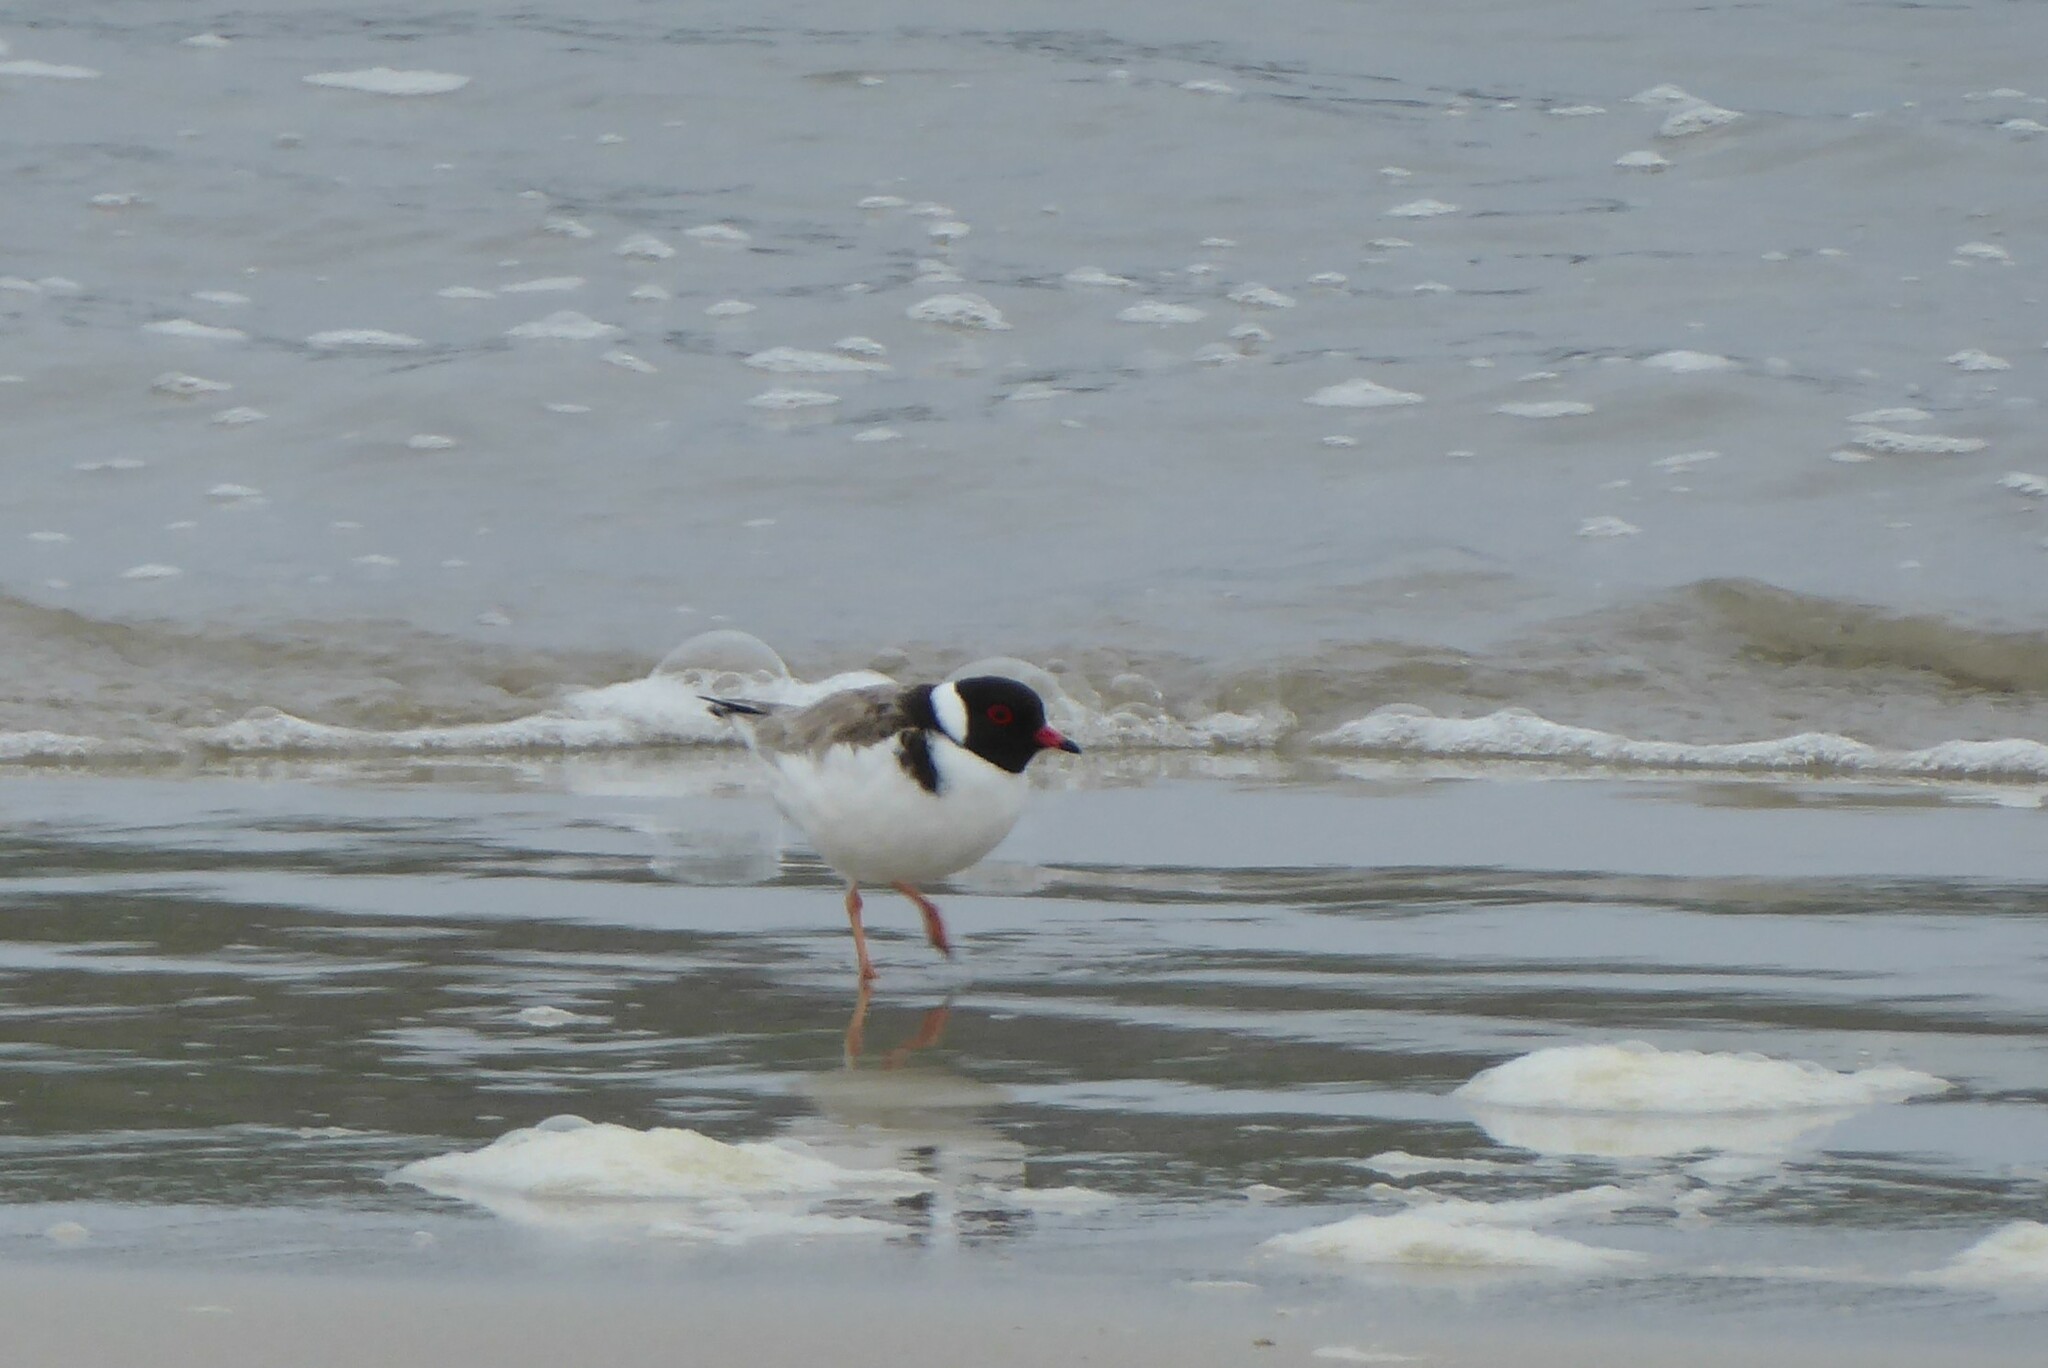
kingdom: Animalia
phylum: Chordata
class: Aves
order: Charadriiformes
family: Charadriidae
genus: Thinornis
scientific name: Thinornis cucullatus
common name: Hooded dotterel
